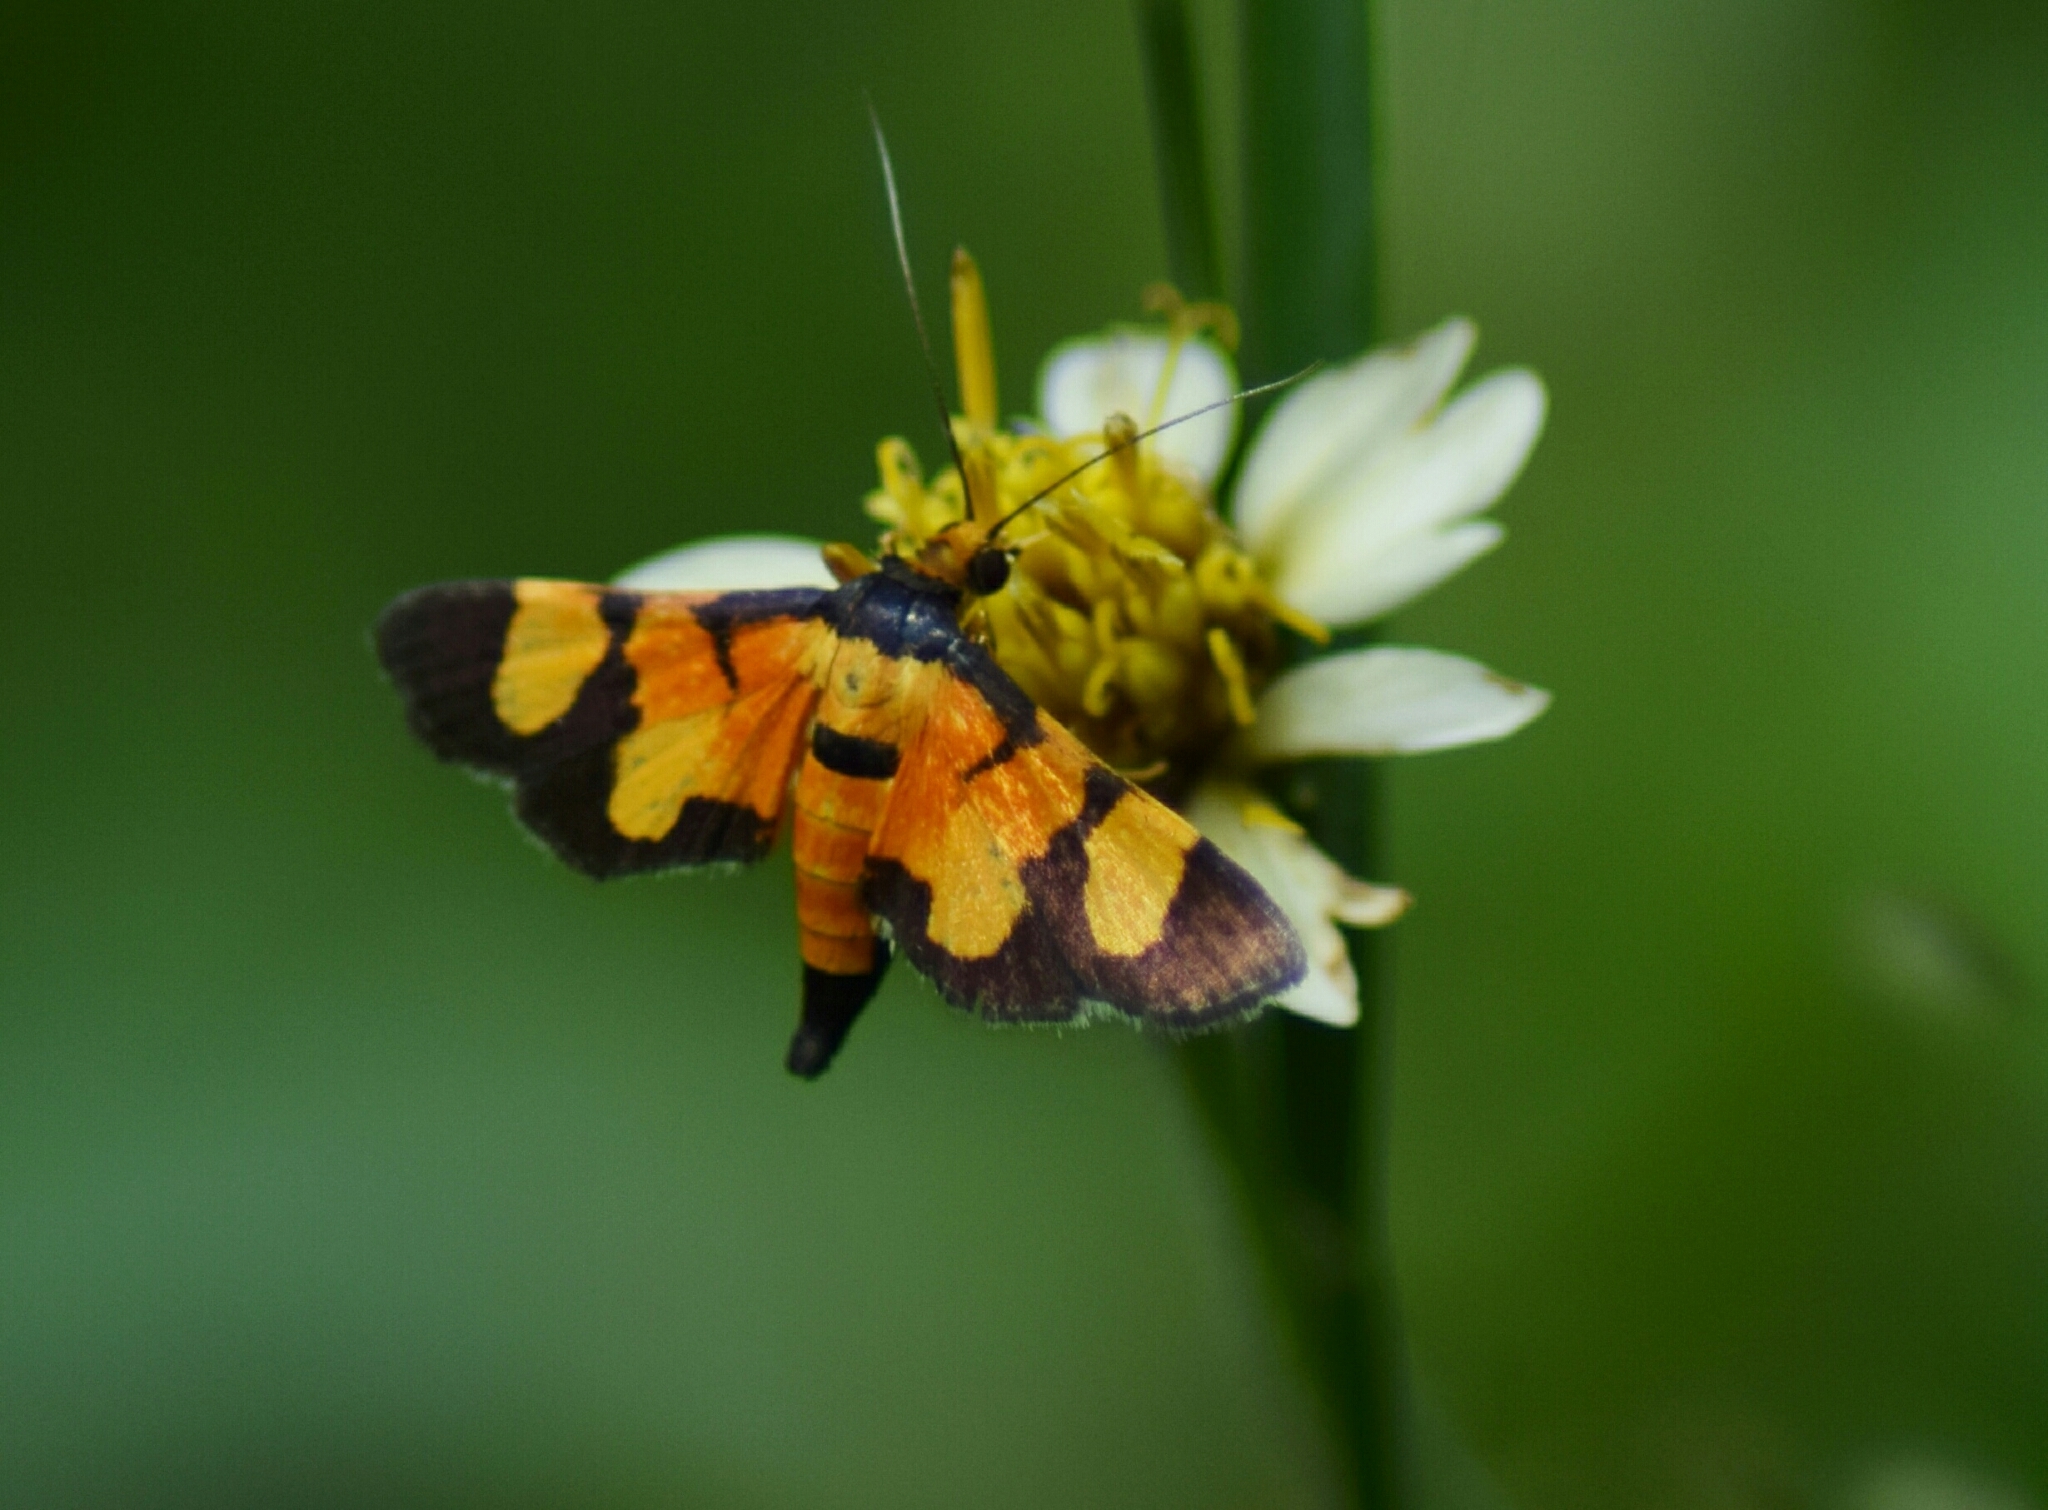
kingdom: Animalia
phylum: Arthropoda
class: Insecta
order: Lepidoptera
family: Crambidae
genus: Aethaloessa
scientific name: Aethaloessa calidalis
